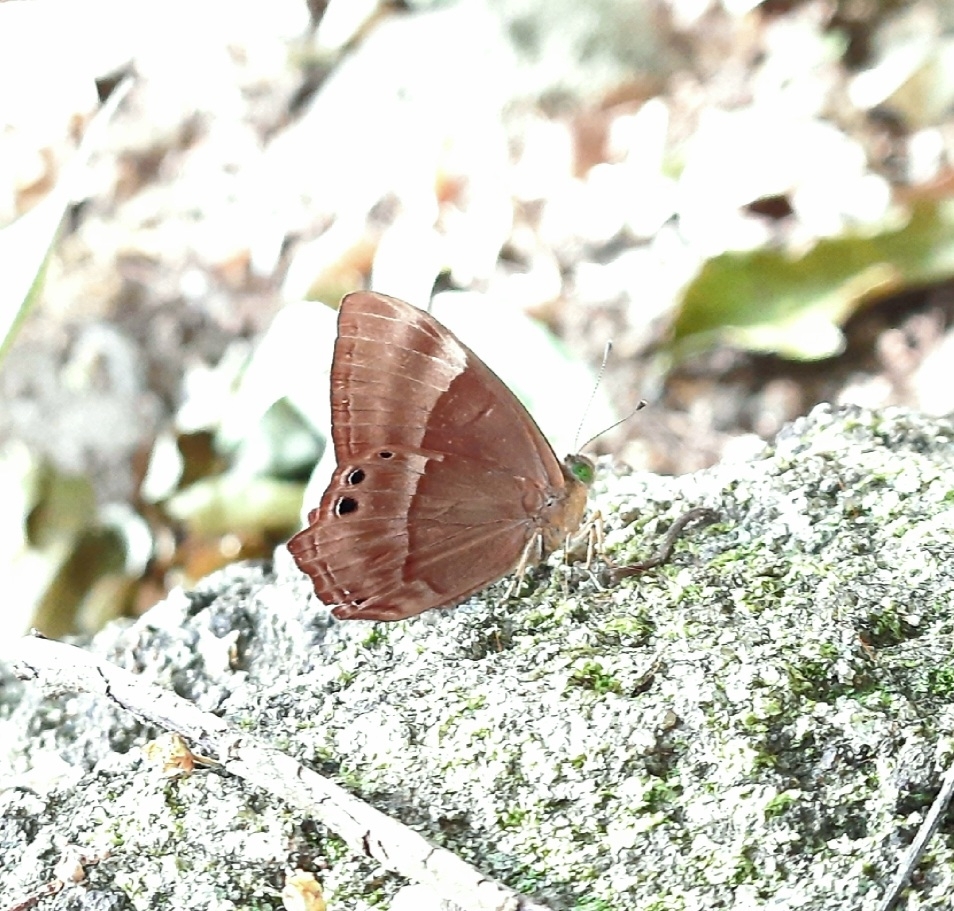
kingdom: Animalia
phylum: Arthropoda
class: Insecta
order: Lepidoptera
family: Lycaenidae
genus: Abisara
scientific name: Abisara echeria
